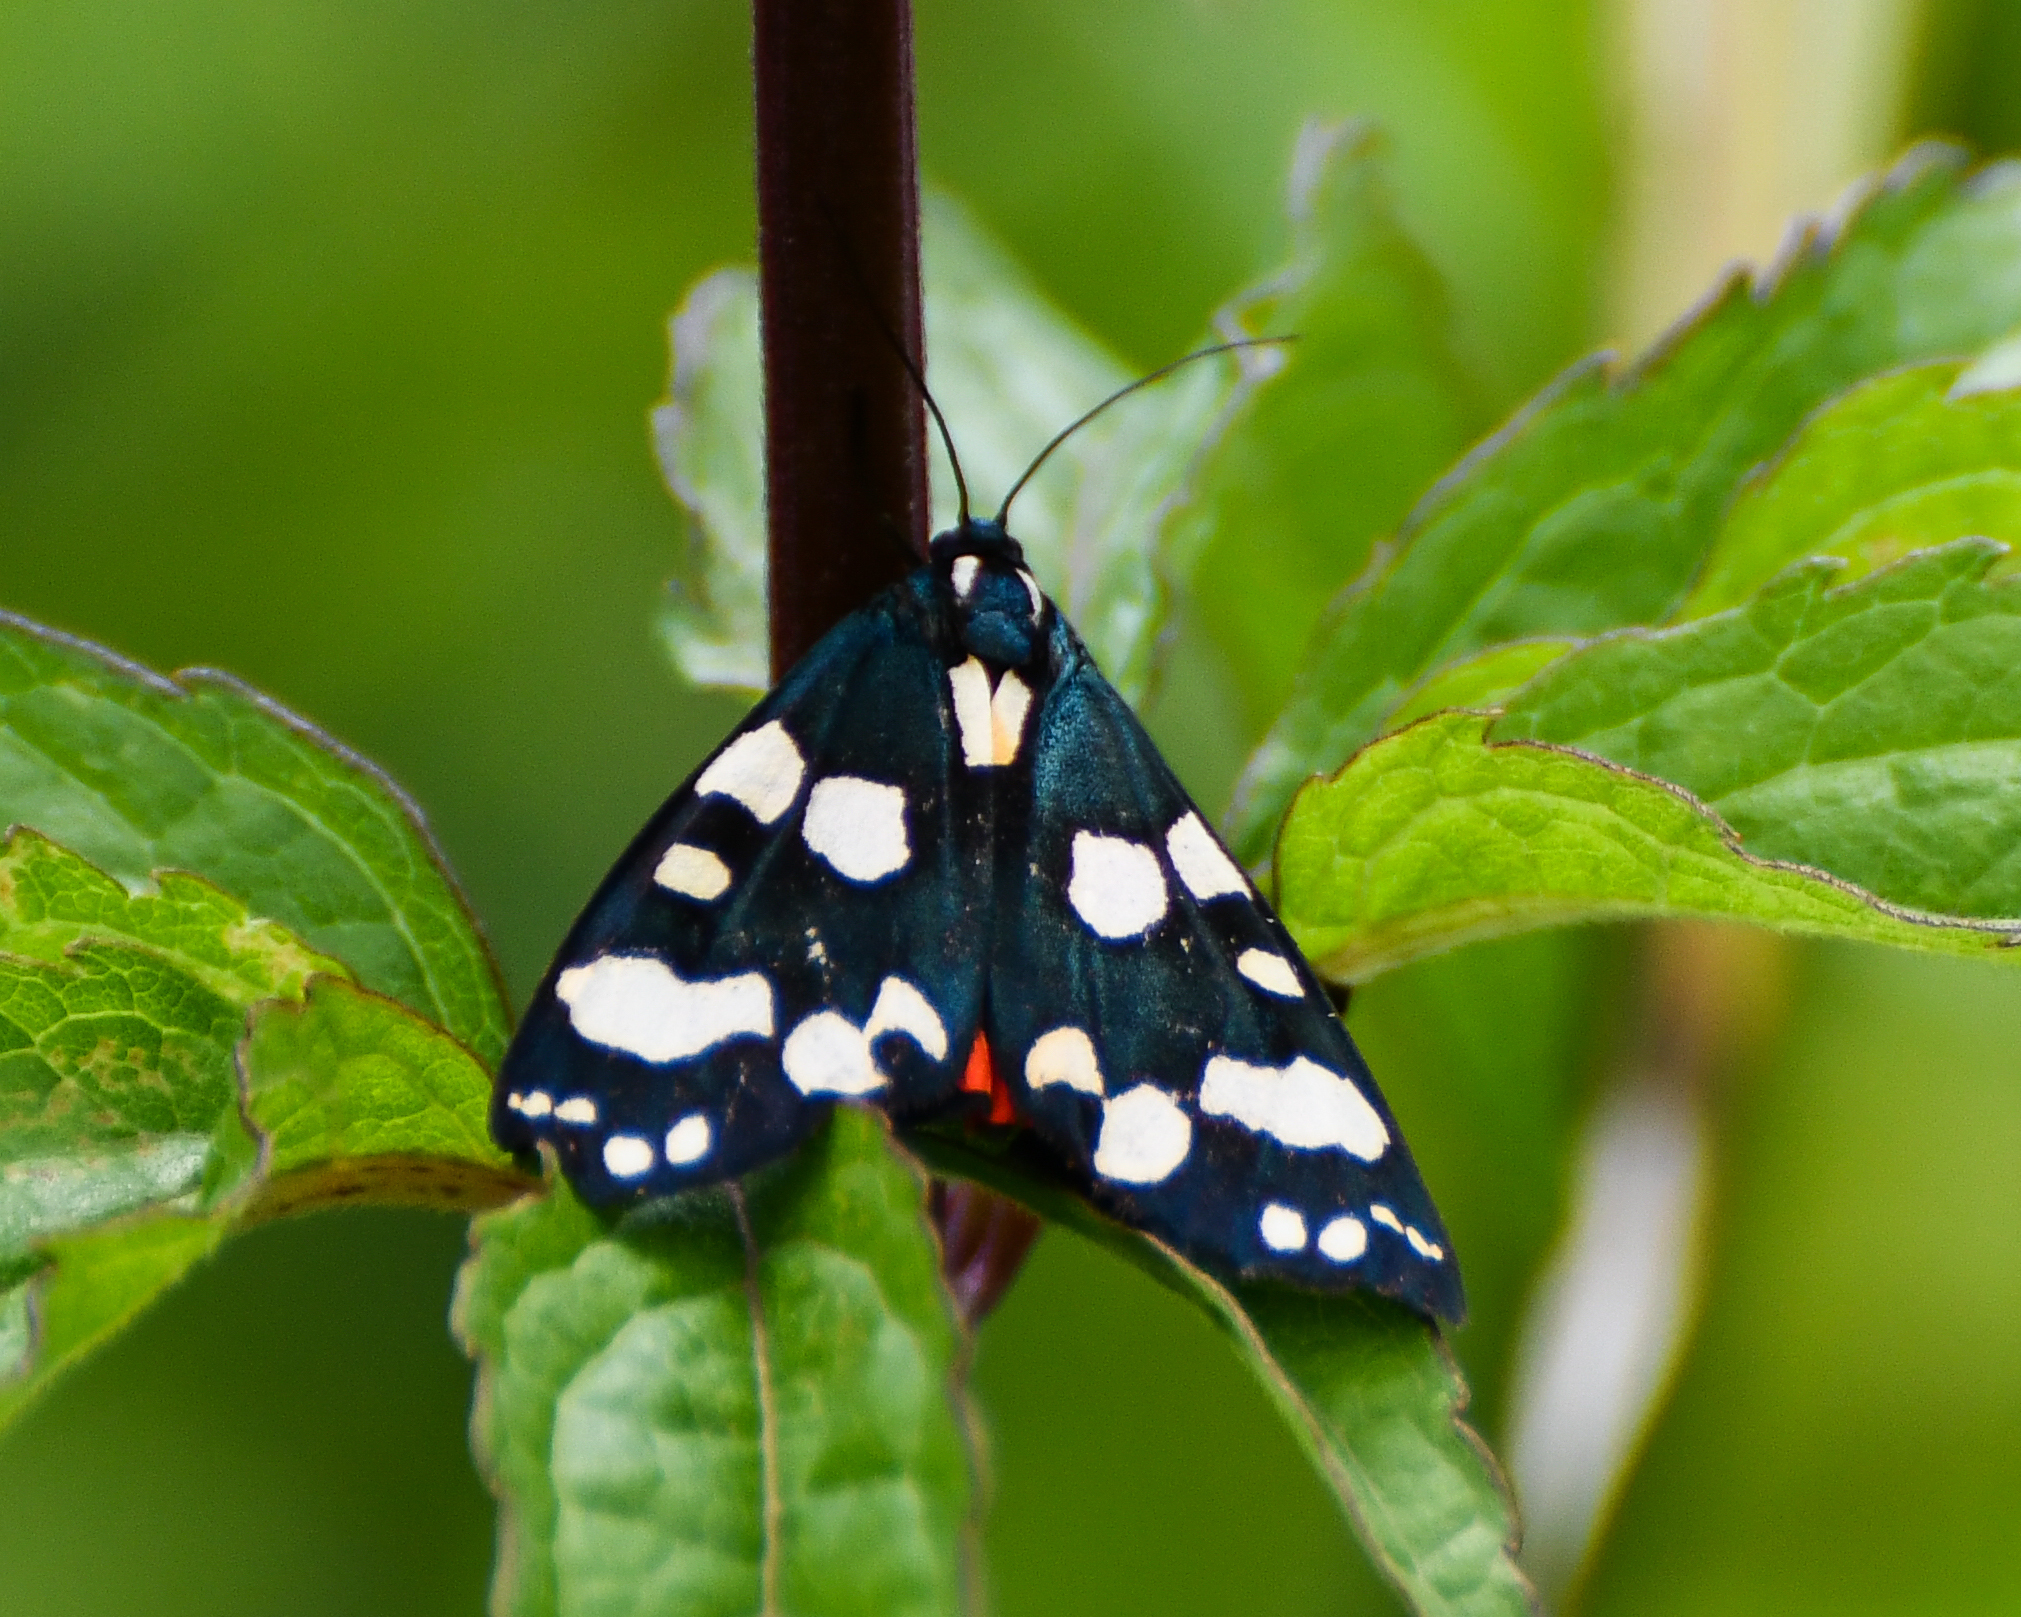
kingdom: Animalia
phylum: Arthropoda
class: Insecta
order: Lepidoptera
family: Erebidae
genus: Callimorpha
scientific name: Callimorpha dominula
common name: Scarlet tiger
